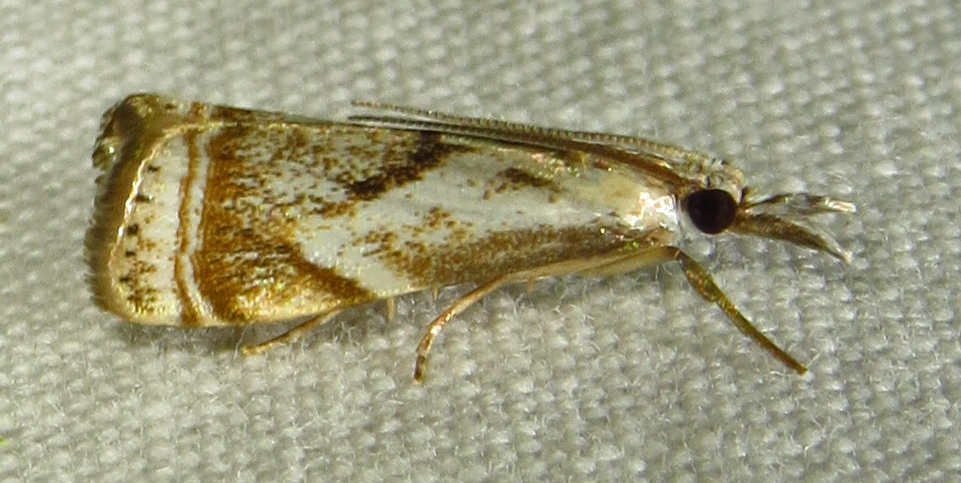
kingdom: Animalia
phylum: Arthropoda
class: Insecta
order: Lepidoptera
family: Crambidae
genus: Microcrambus
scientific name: Microcrambus elegans
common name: Elegant grass-veneer
